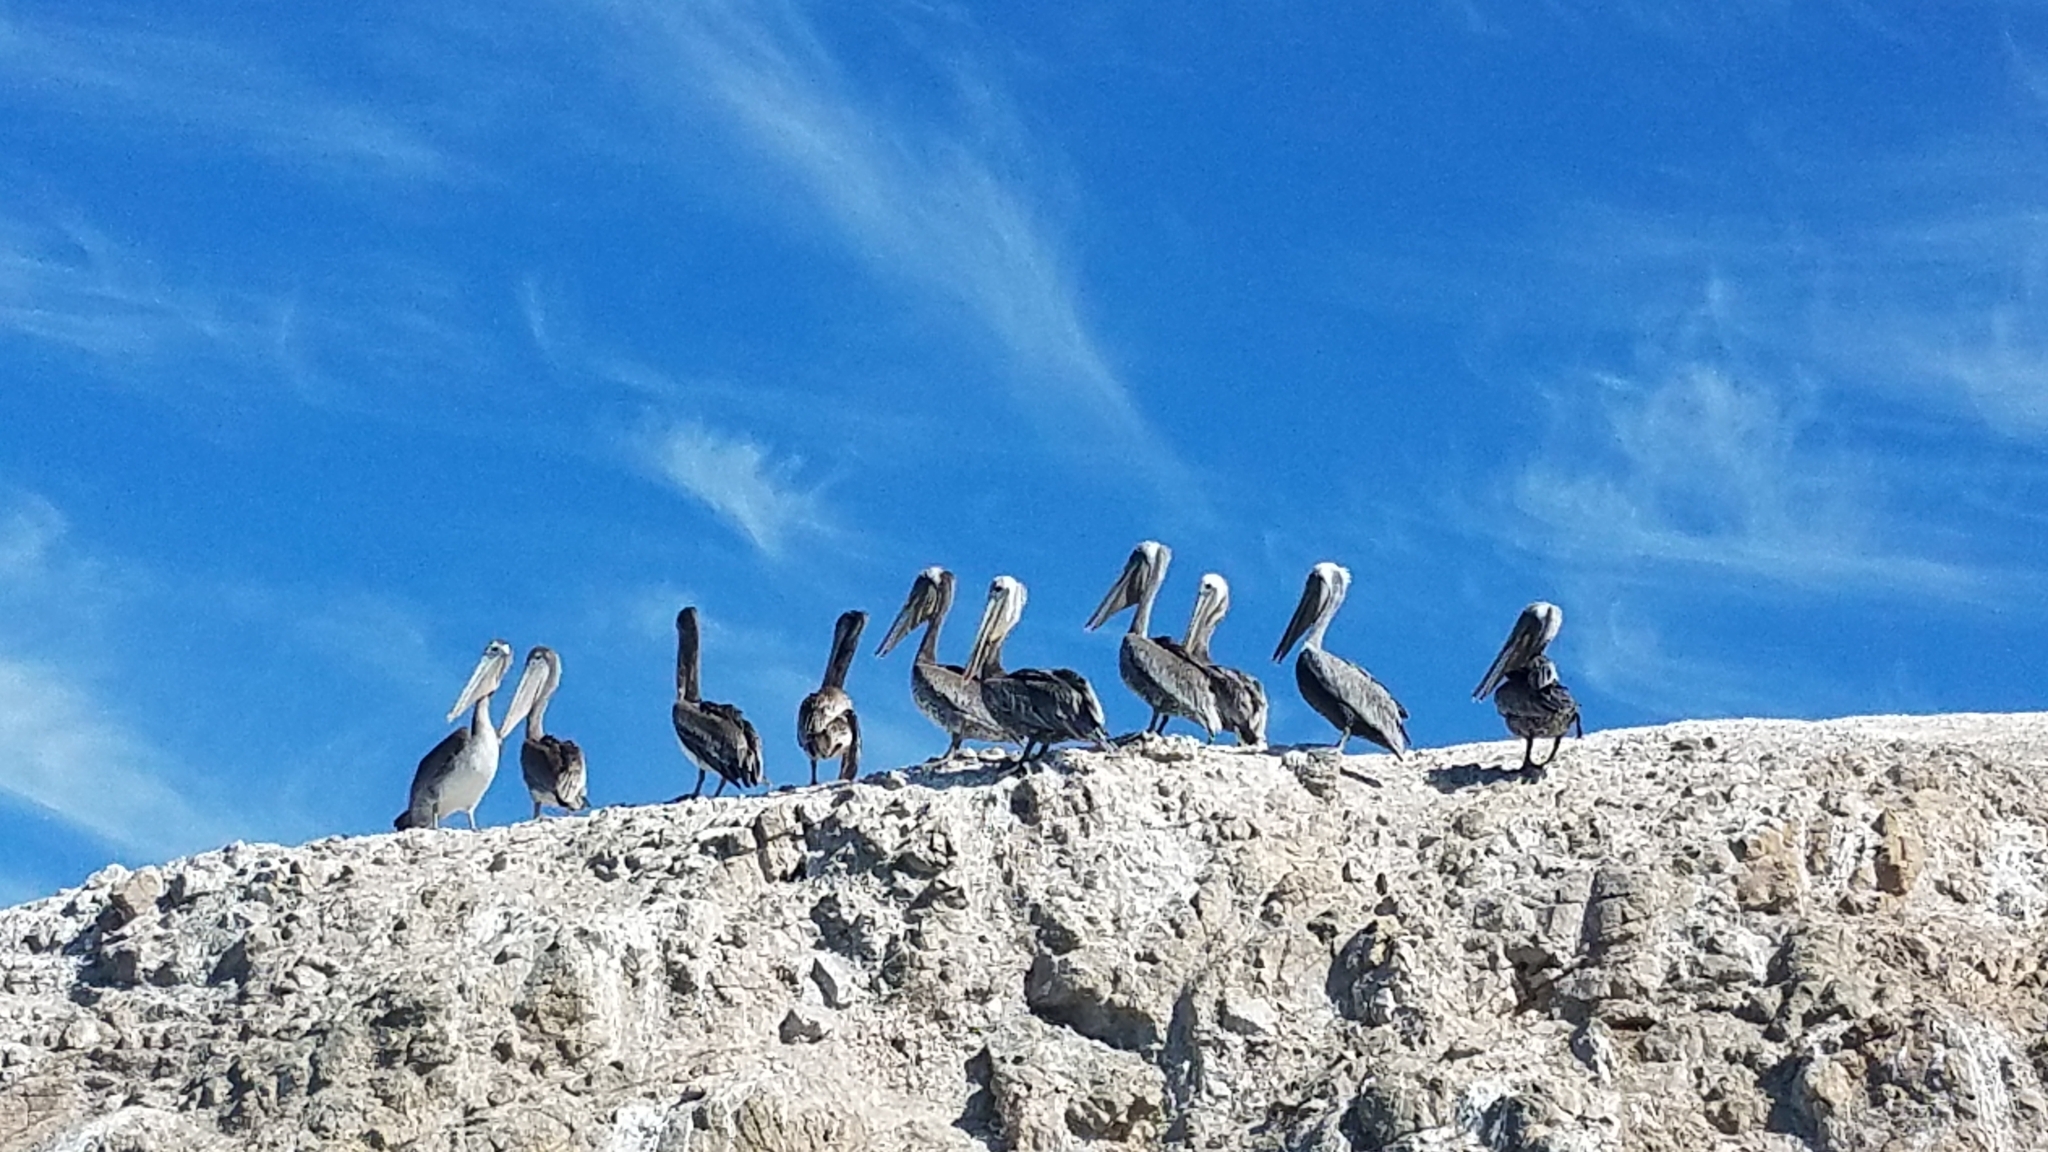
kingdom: Animalia
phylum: Chordata
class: Aves
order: Pelecaniformes
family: Pelecanidae
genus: Pelecanus
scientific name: Pelecanus occidentalis
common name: Brown pelican
